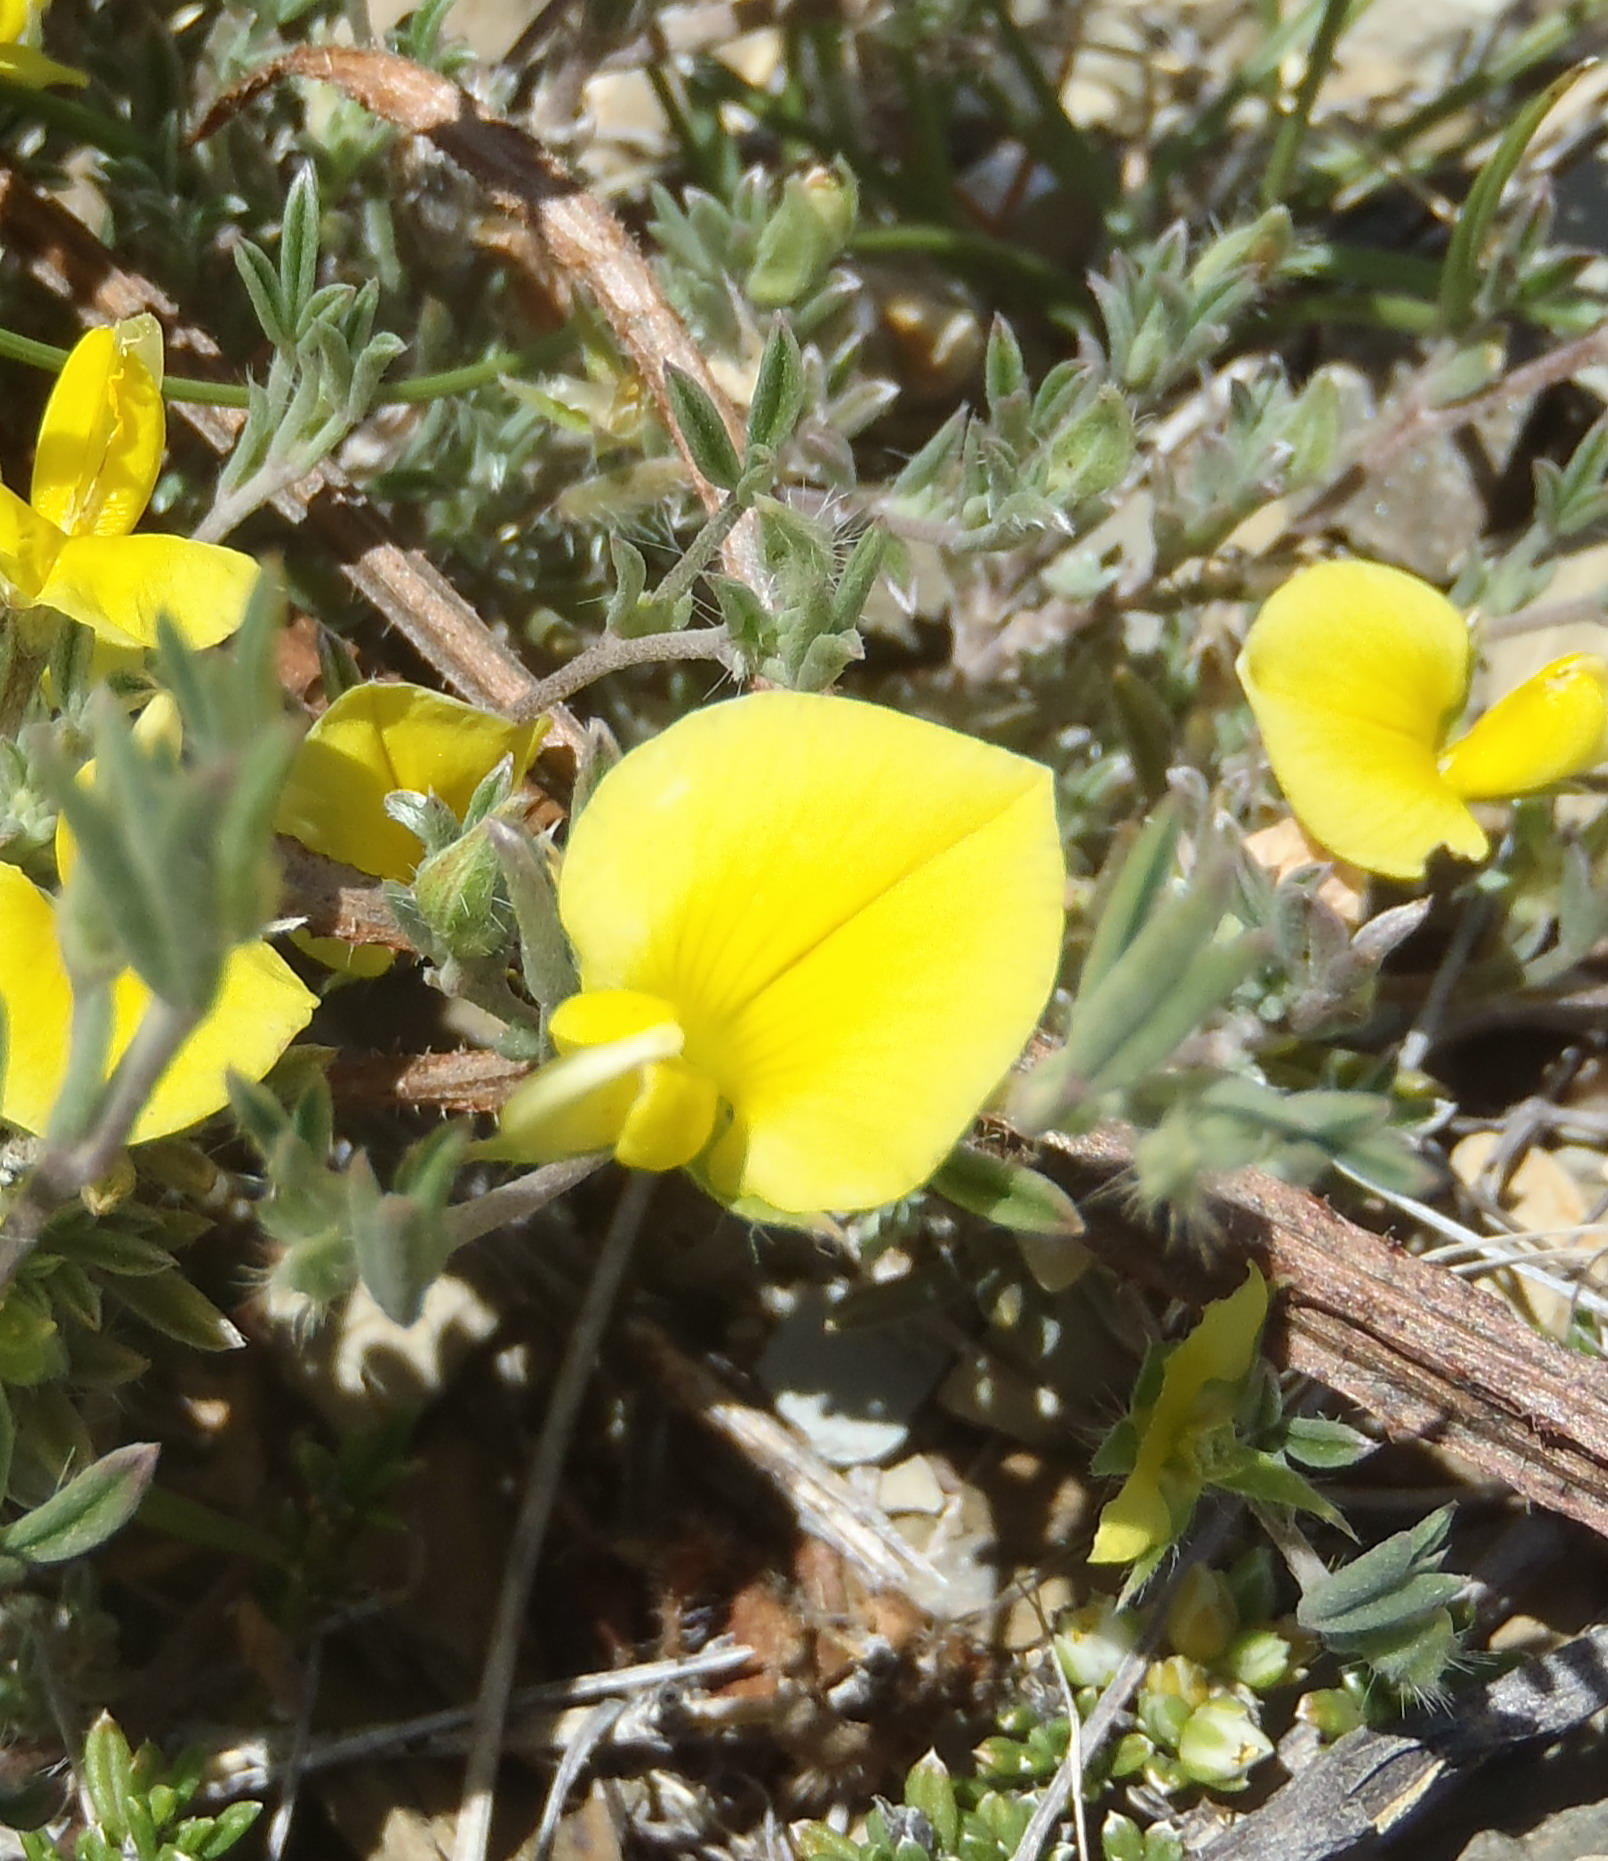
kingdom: Plantae
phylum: Tracheophyta
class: Magnoliopsida
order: Fabales
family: Fabaceae
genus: Lotononis
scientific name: Lotononis pungens
